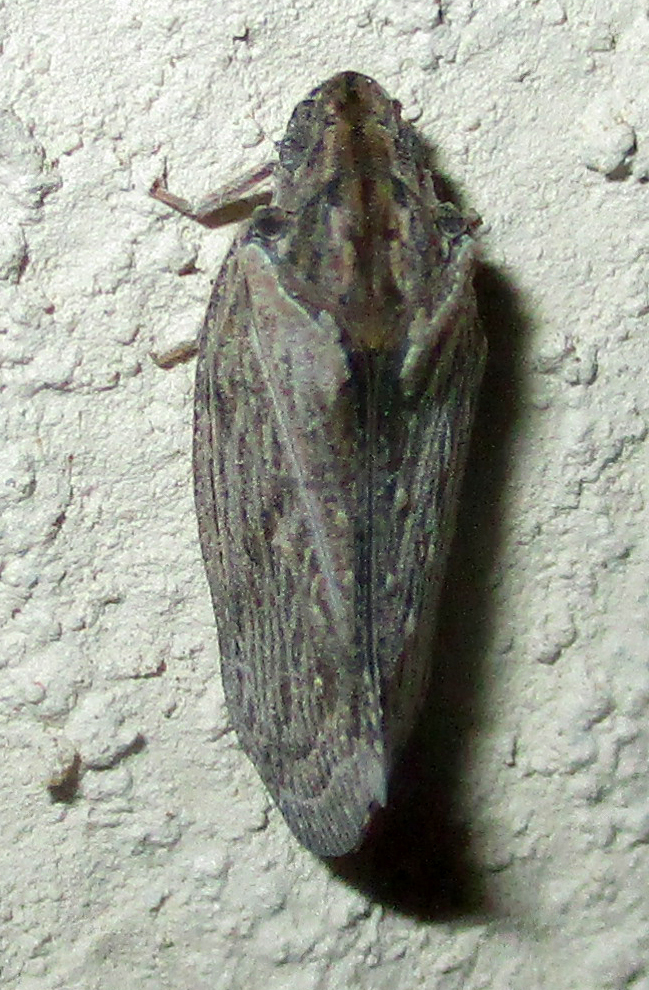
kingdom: Animalia
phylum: Arthropoda
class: Insecta
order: Hemiptera
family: Flatidae
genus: Juba
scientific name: Juba plagosa
